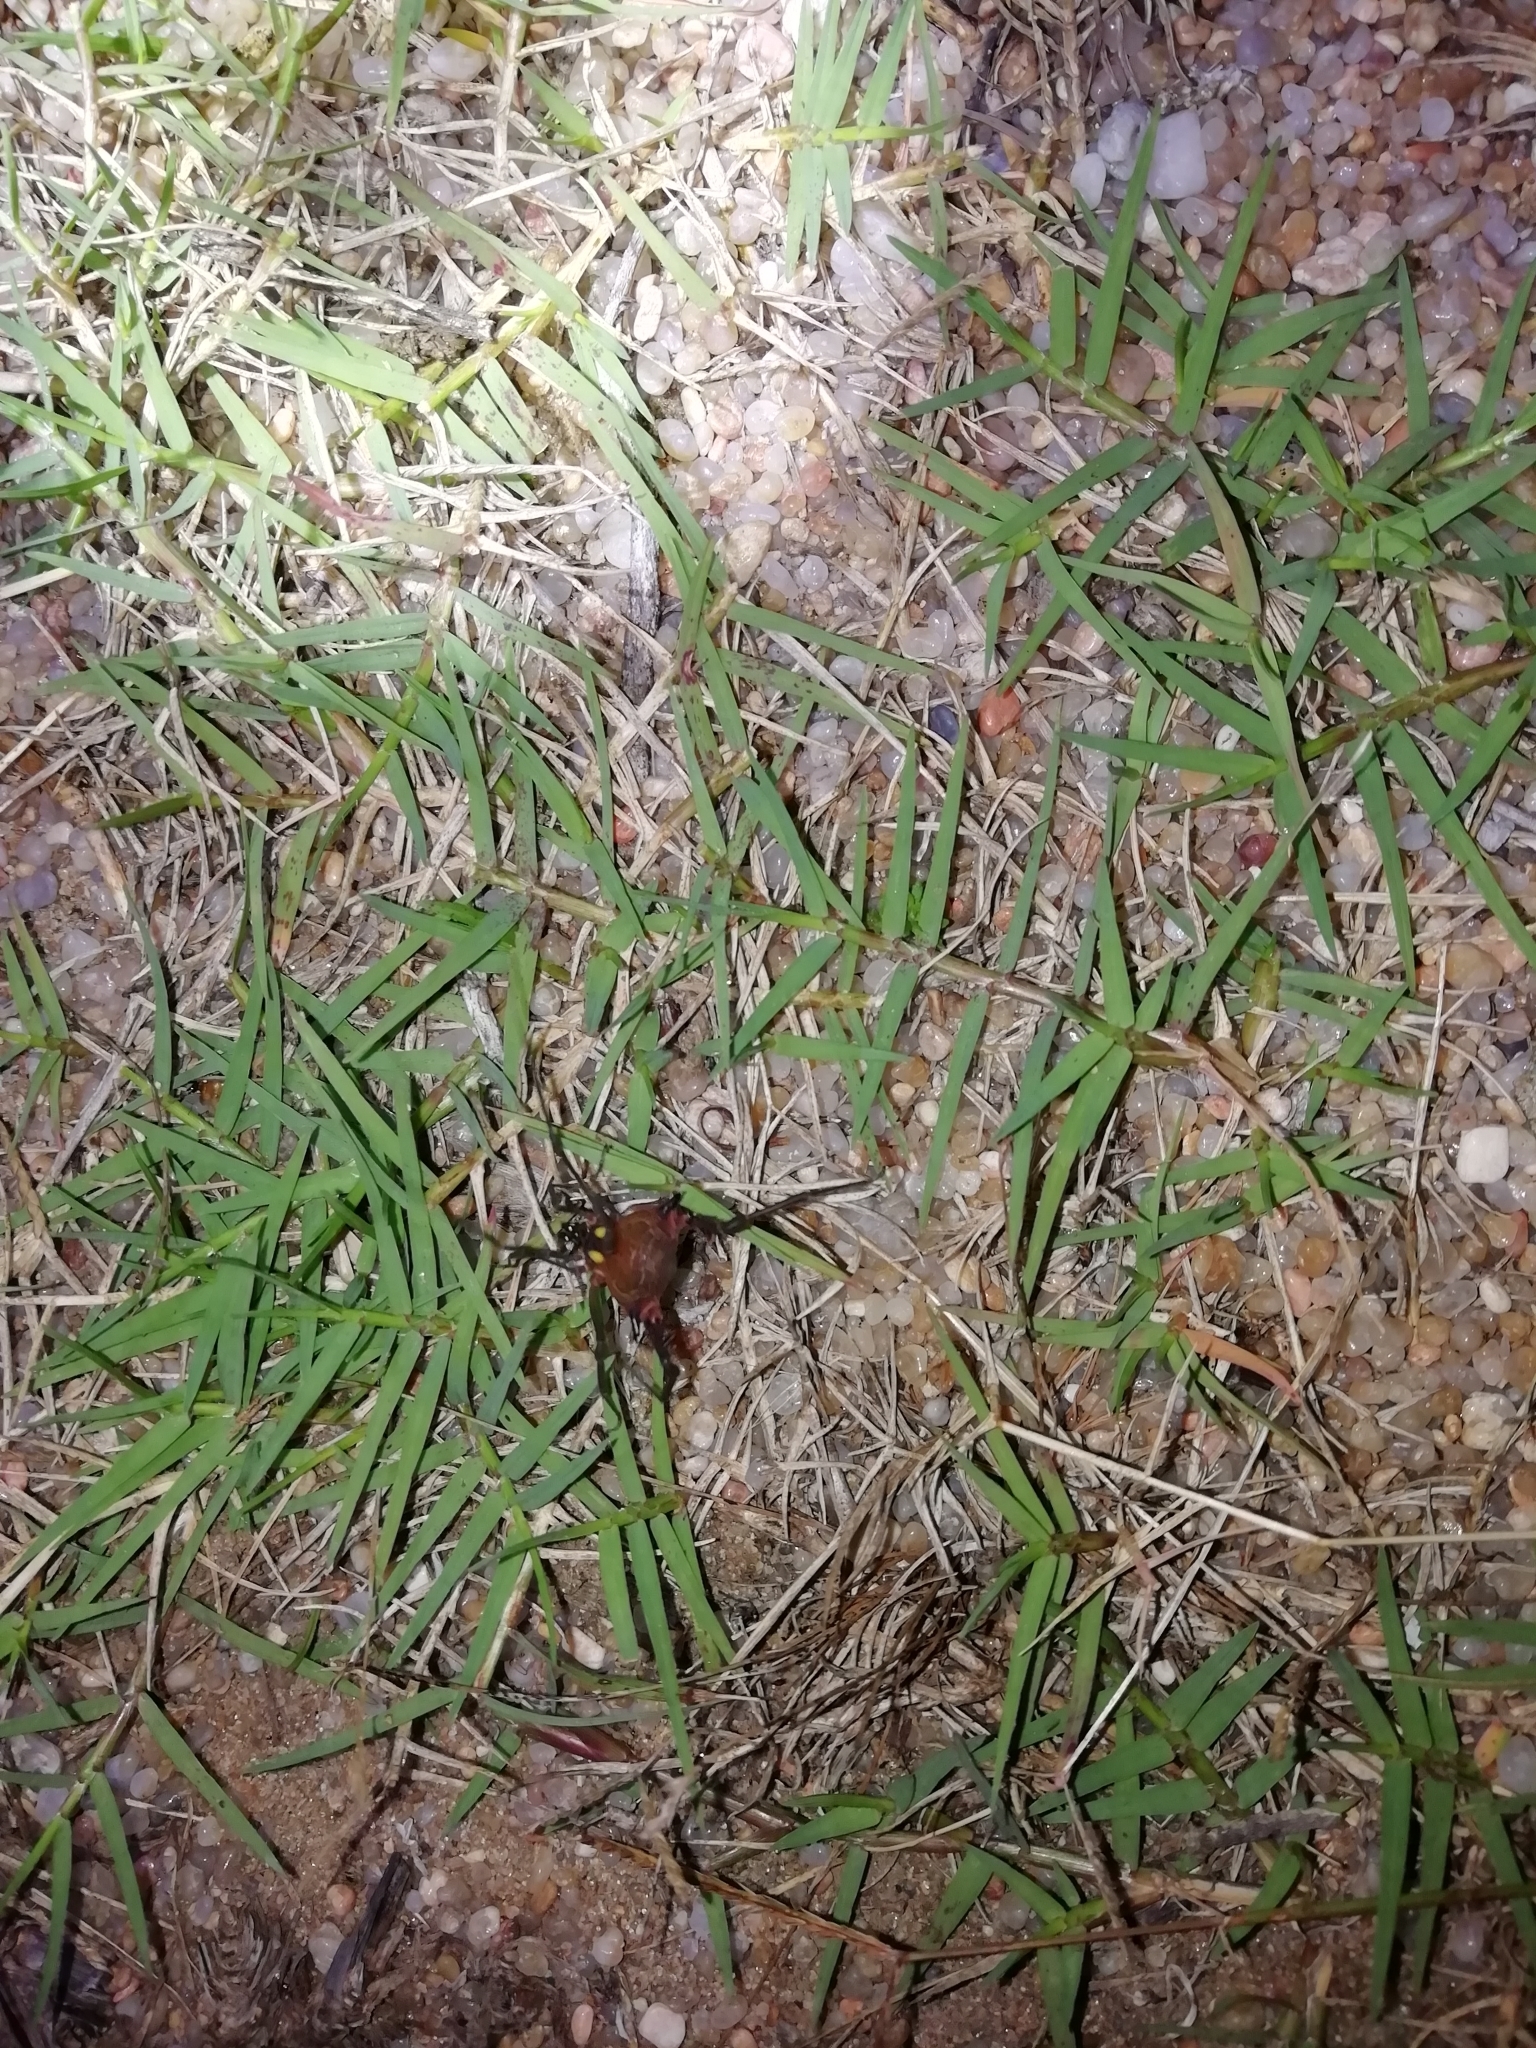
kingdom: Animalia
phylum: Arthropoda
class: Arachnida
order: Opiliones
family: Gonyleptidae
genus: Parampheres
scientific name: Parampheres bimaculatus
